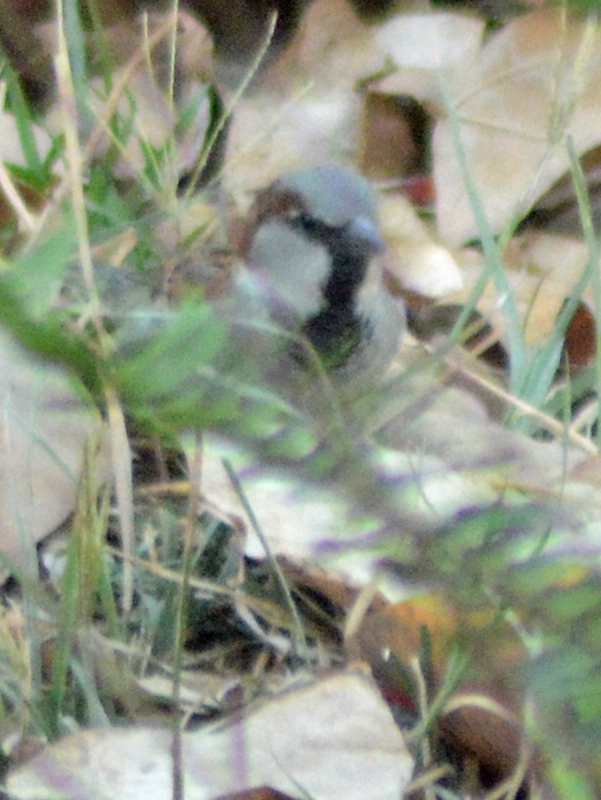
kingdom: Animalia
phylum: Chordata
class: Aves
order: Passeriformes
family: Passeridae
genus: Passer
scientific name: Passer domesticus
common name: House sparrow
